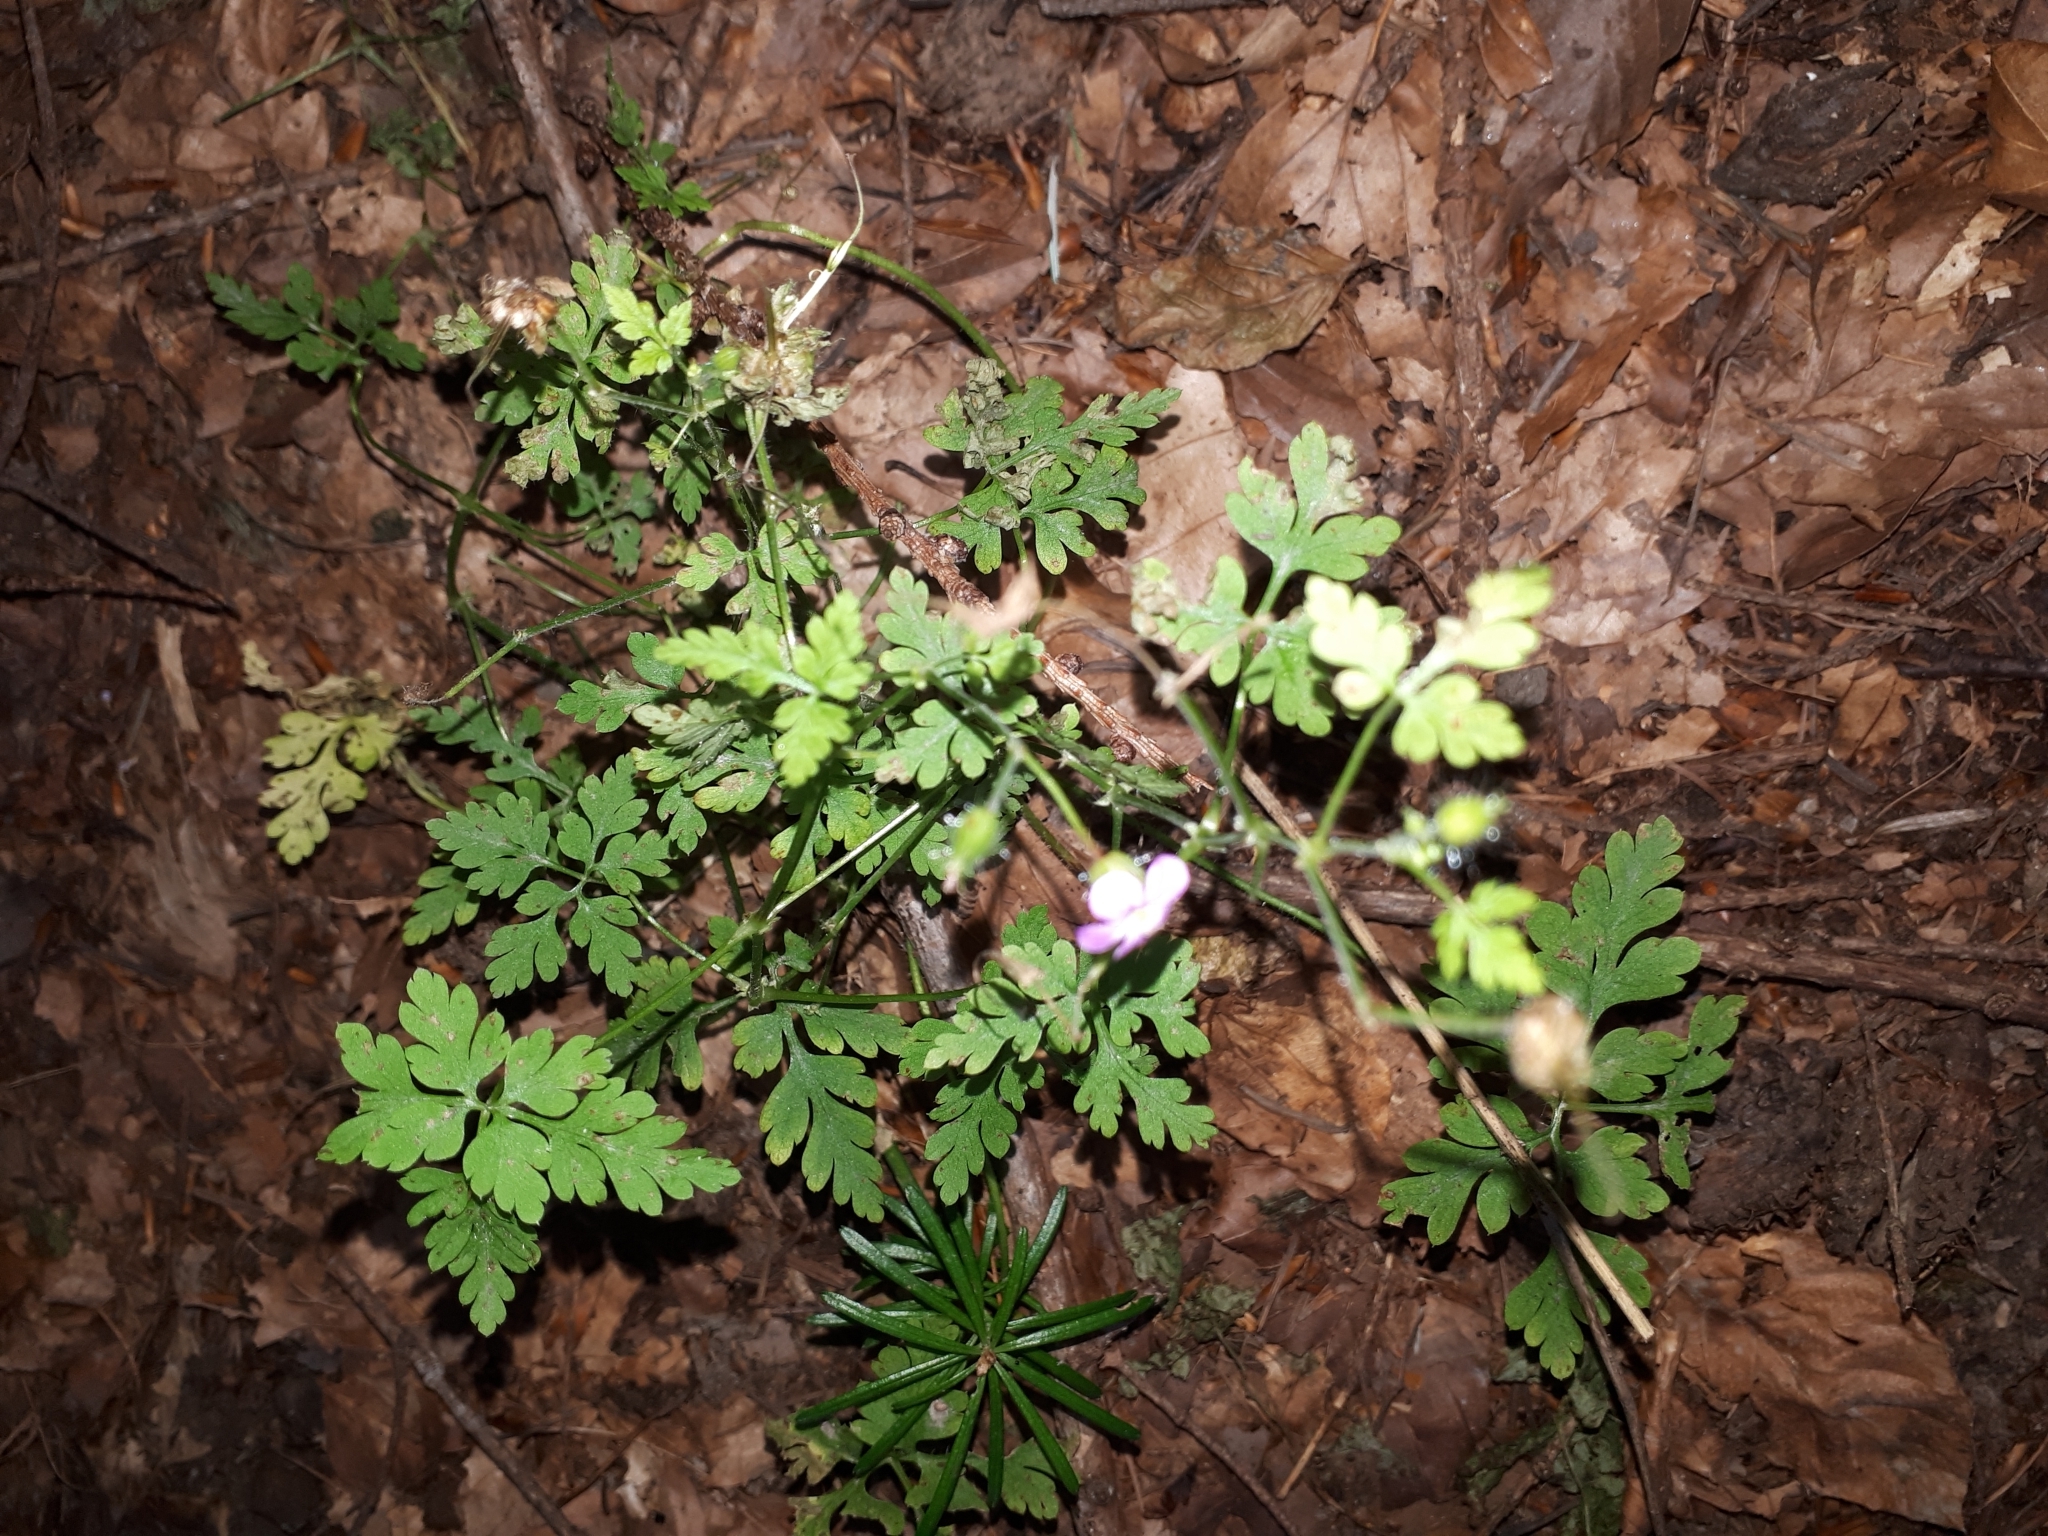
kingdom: Plantae
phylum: Tracheophyta
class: Magnoliopsida
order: Geraniales
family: Geraniaceae
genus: Geranium
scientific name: Geranium robertianum
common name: Herb-robert
